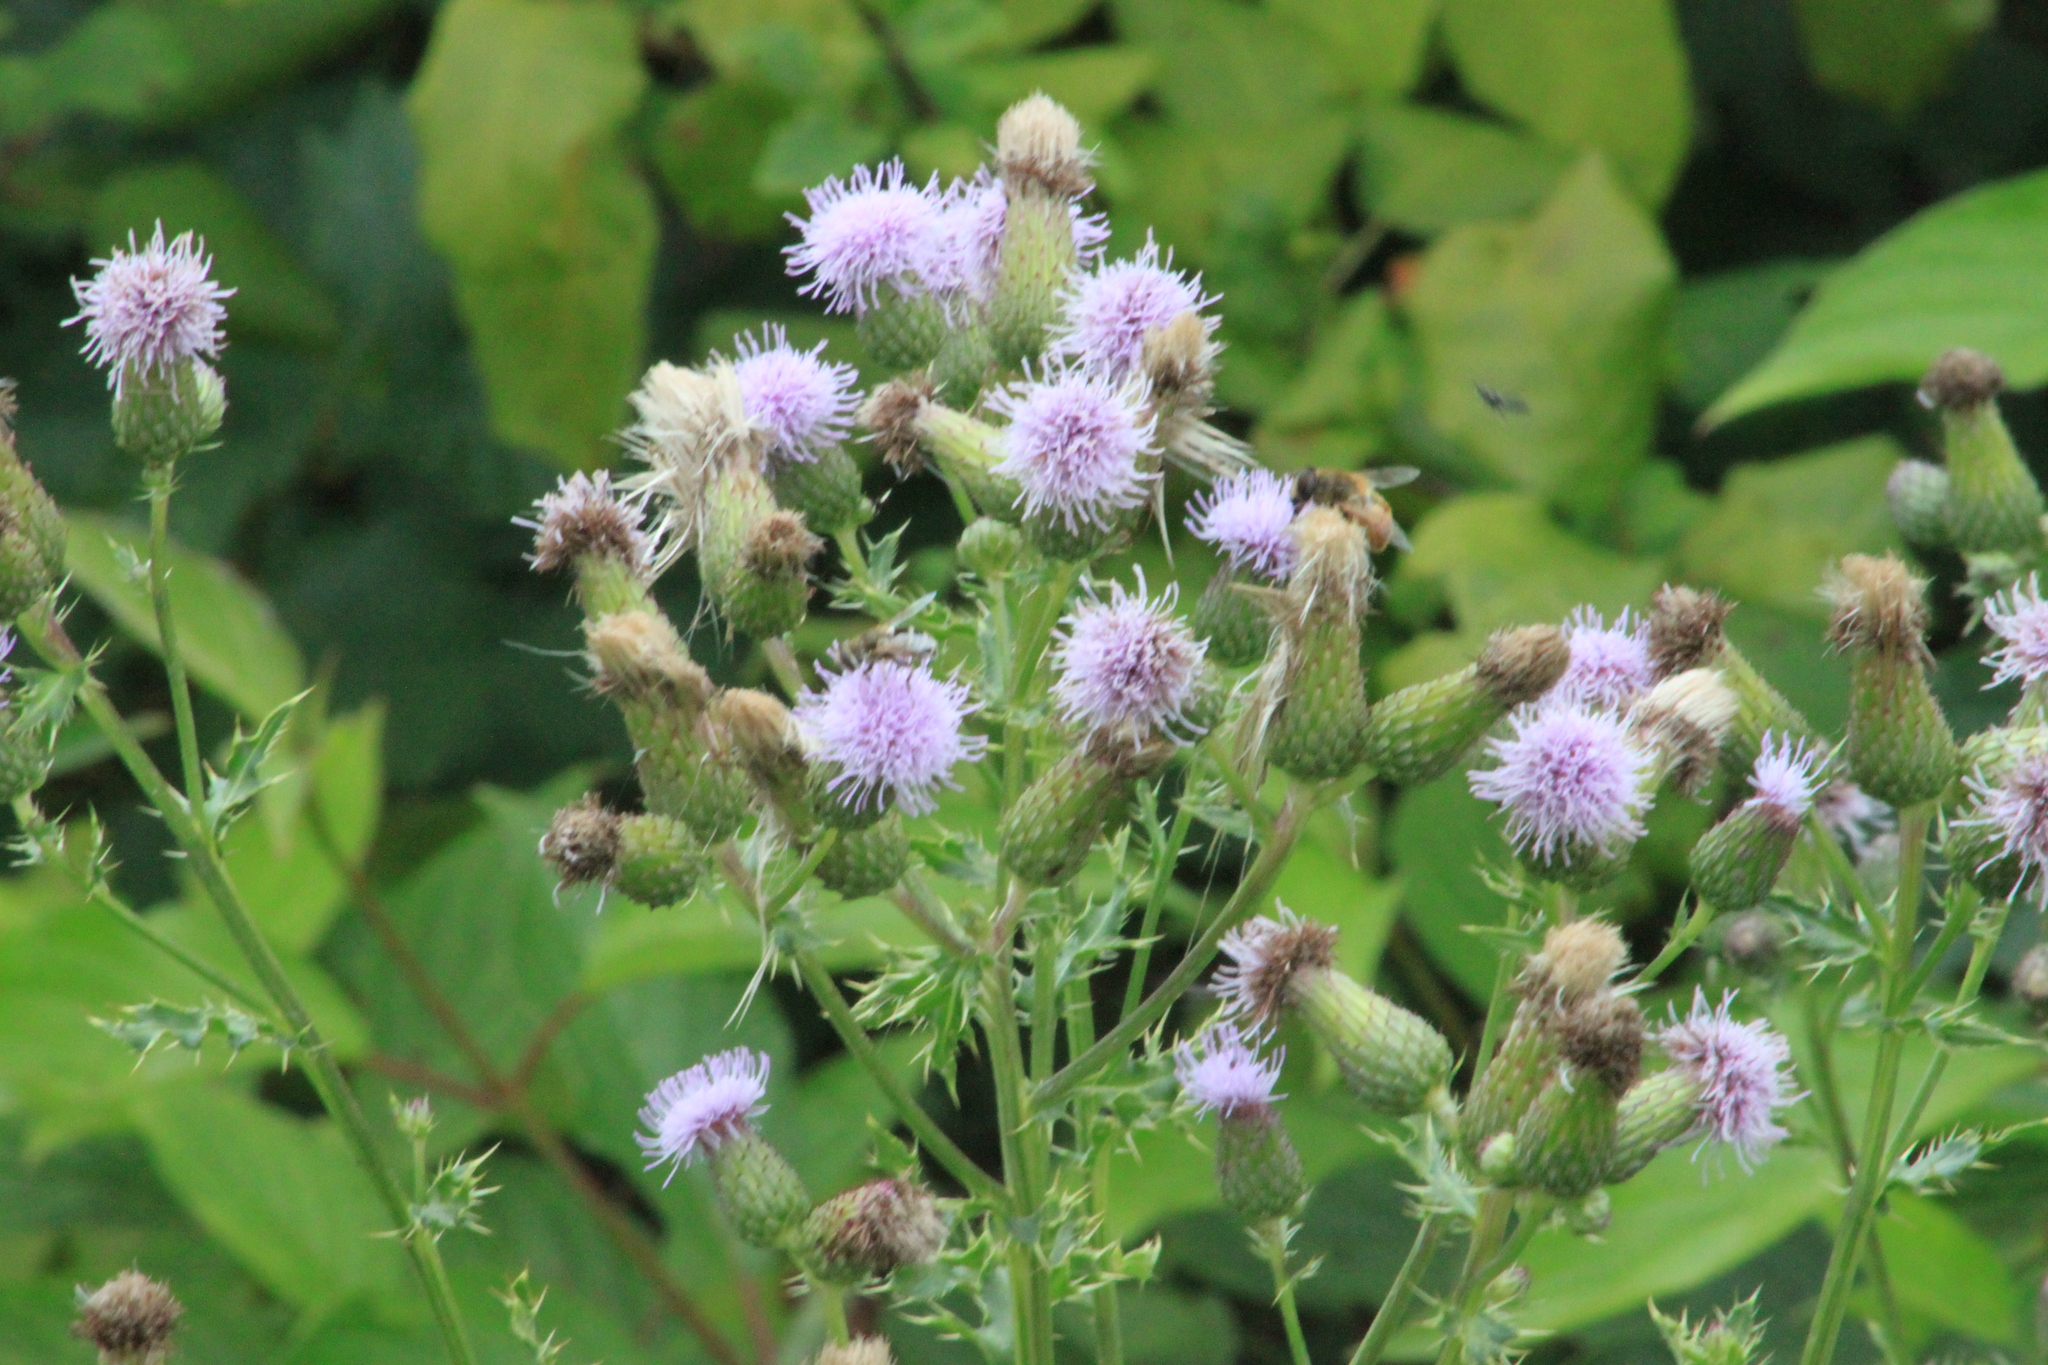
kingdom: Plantae
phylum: Tracheophyta
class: Magnoliopsida
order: Asterales
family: Asteraceae
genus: Cirsium
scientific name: Cirsium arvense
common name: Creeping thistle
